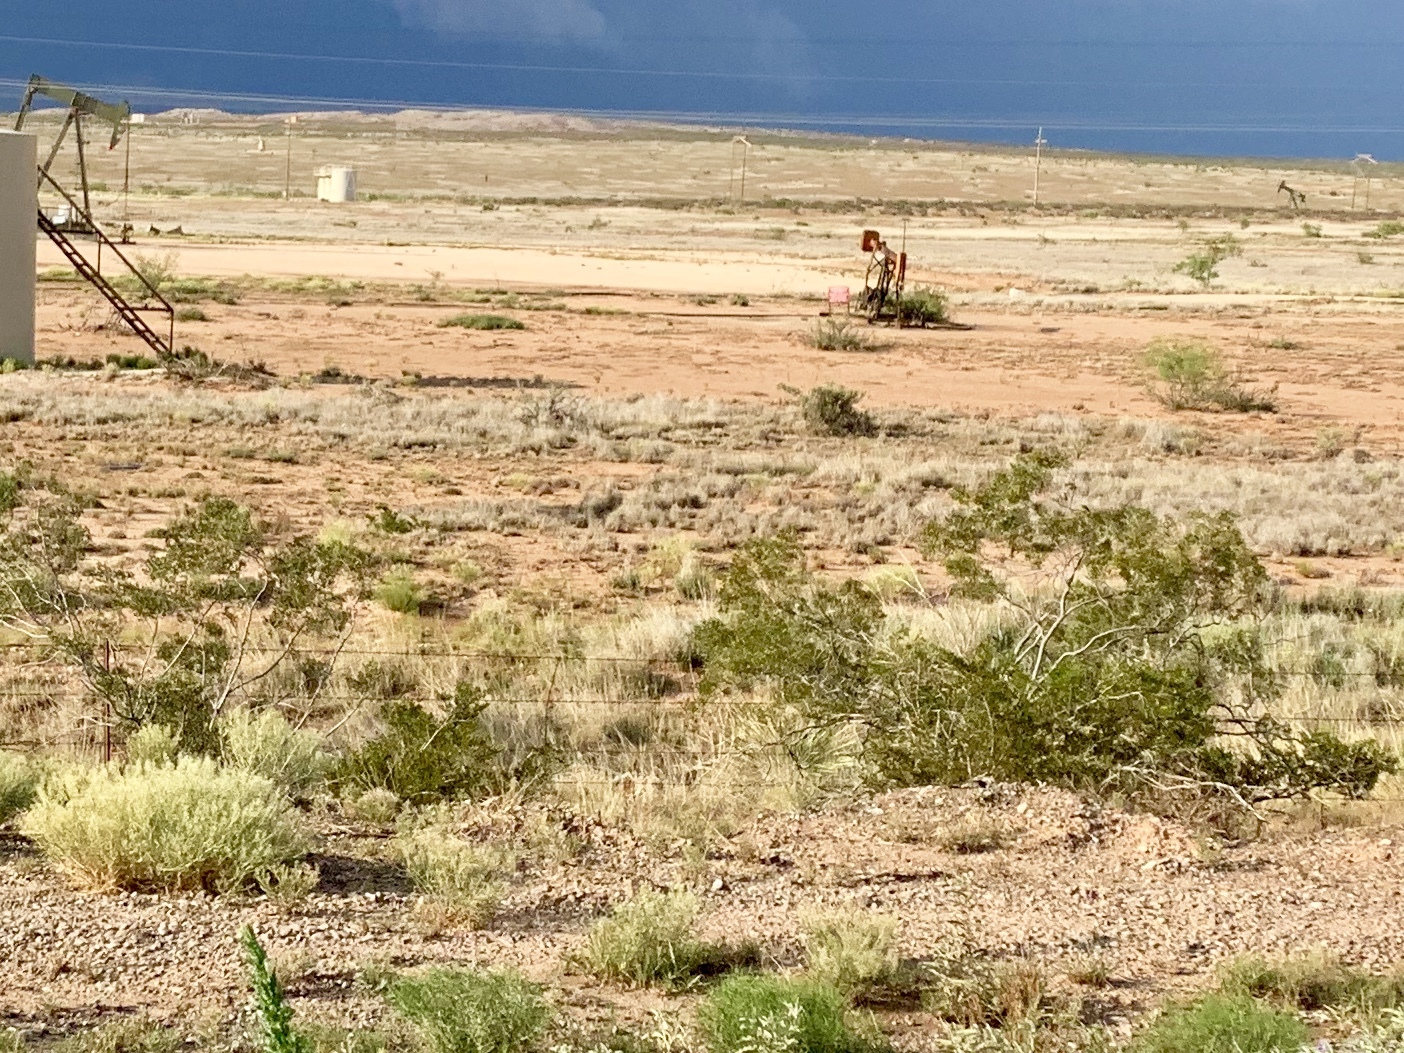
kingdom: Plantae
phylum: Tracheophyta
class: Magnoliopsida
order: Zygophyllales
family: Zygophyllaceae
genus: Larrea
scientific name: Larrea tridentata
